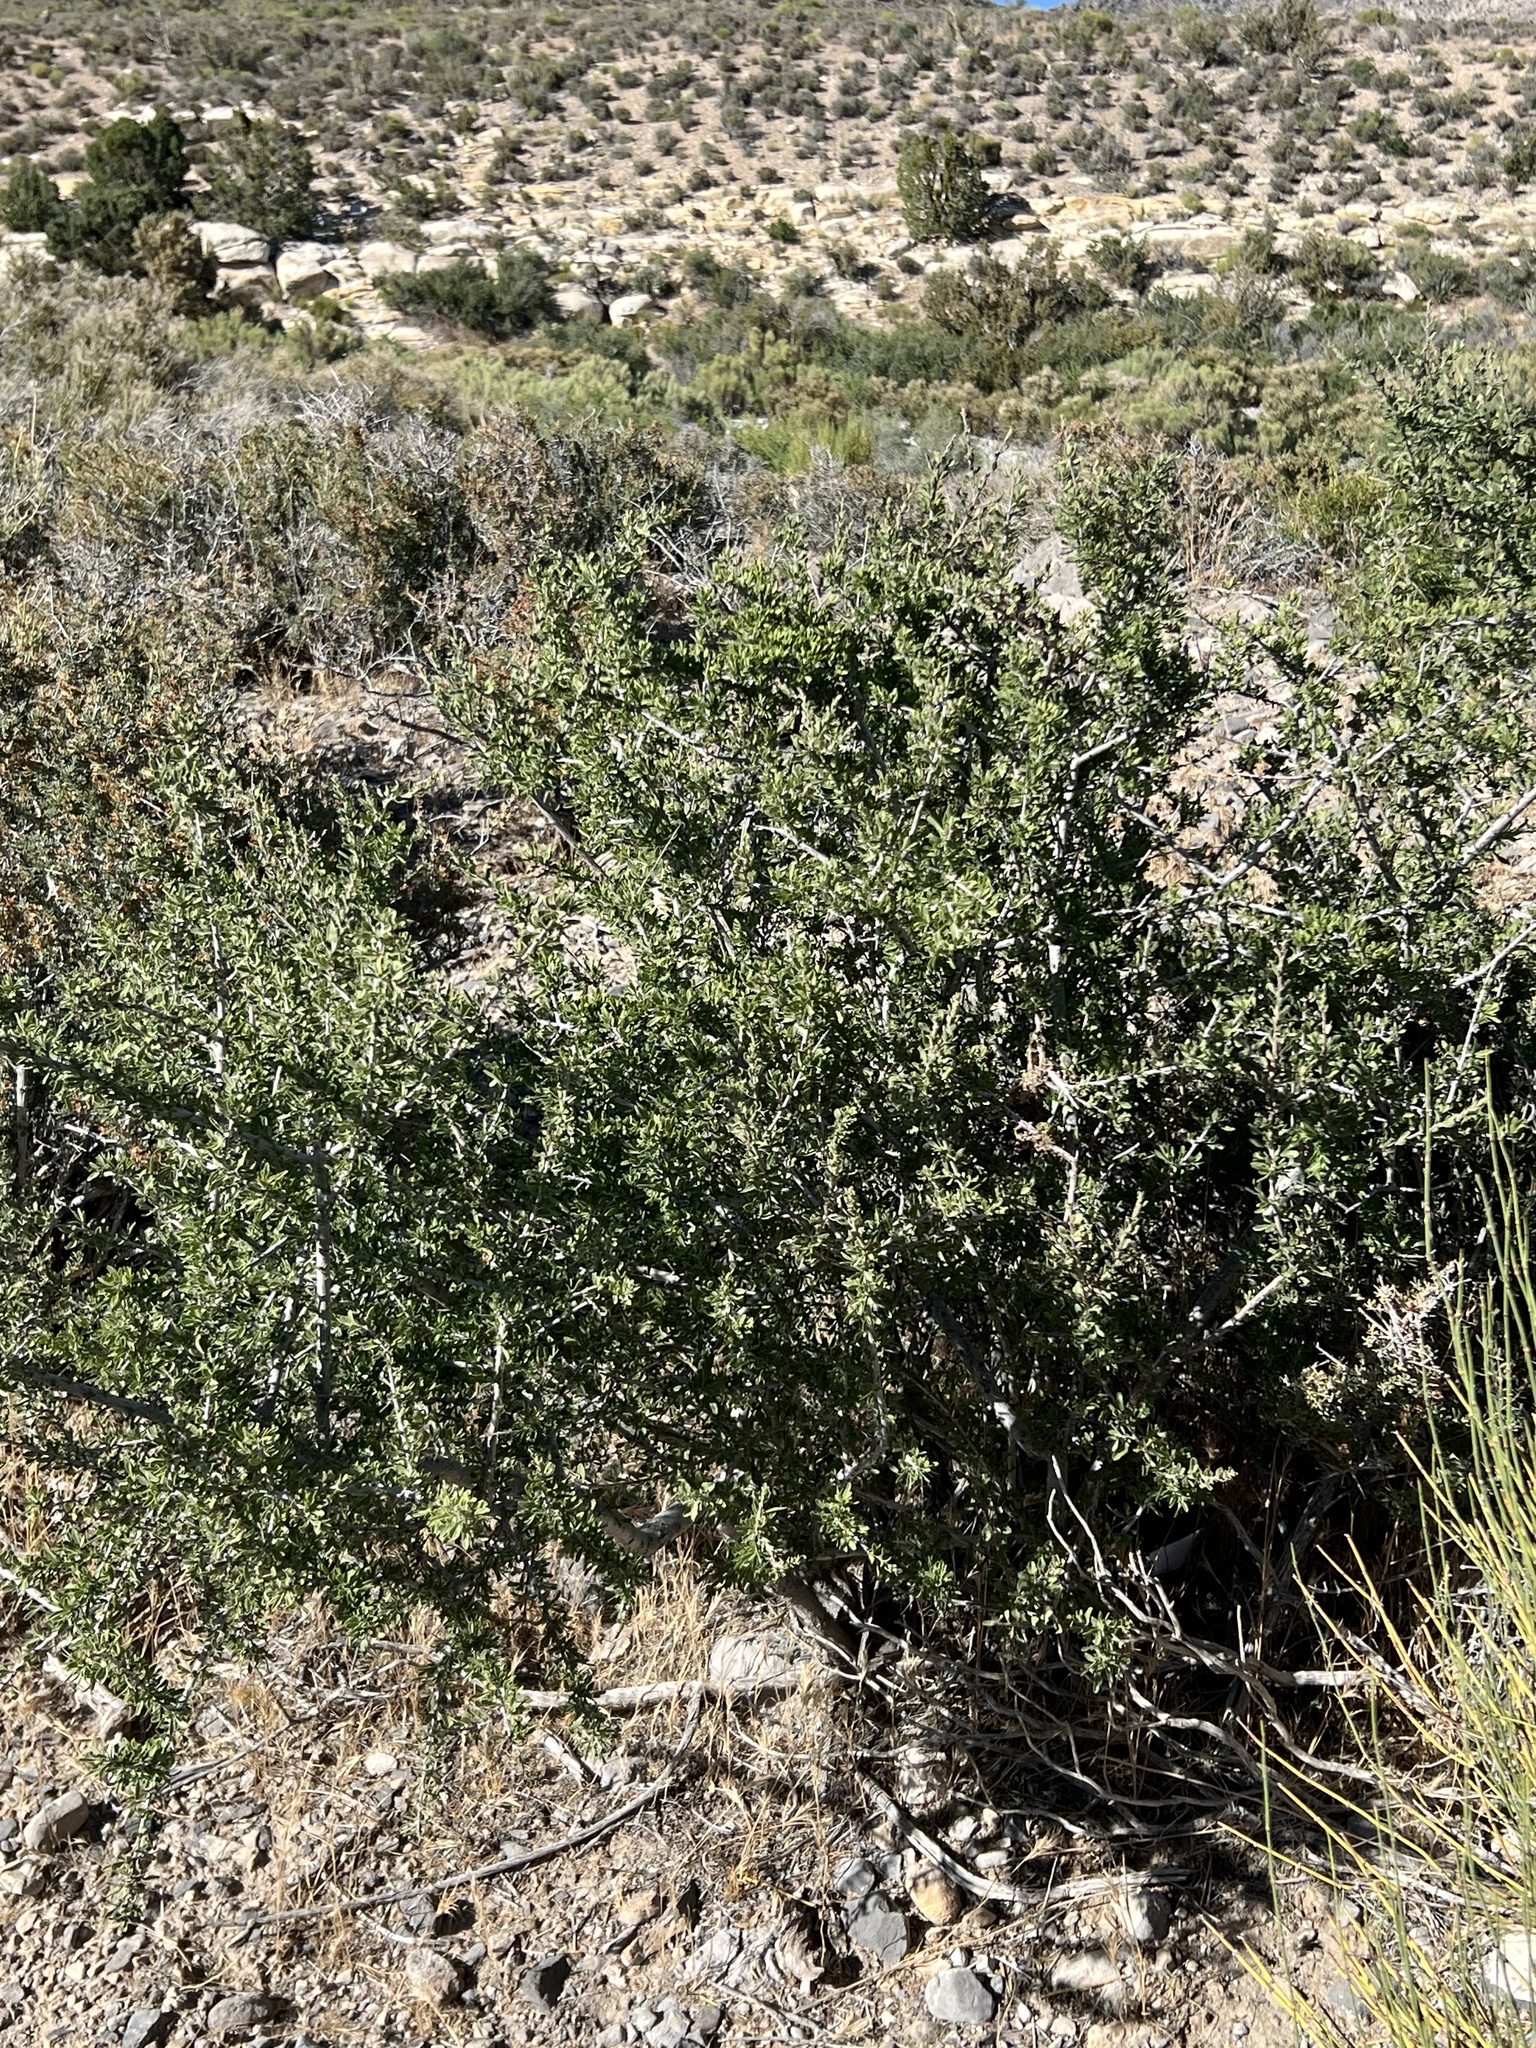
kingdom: Plantae
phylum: Tracheophyta
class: Magnoliopsida
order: Rosales
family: Rosaceae
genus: Prunus
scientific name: Prunus fasciculata
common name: Desert almond
